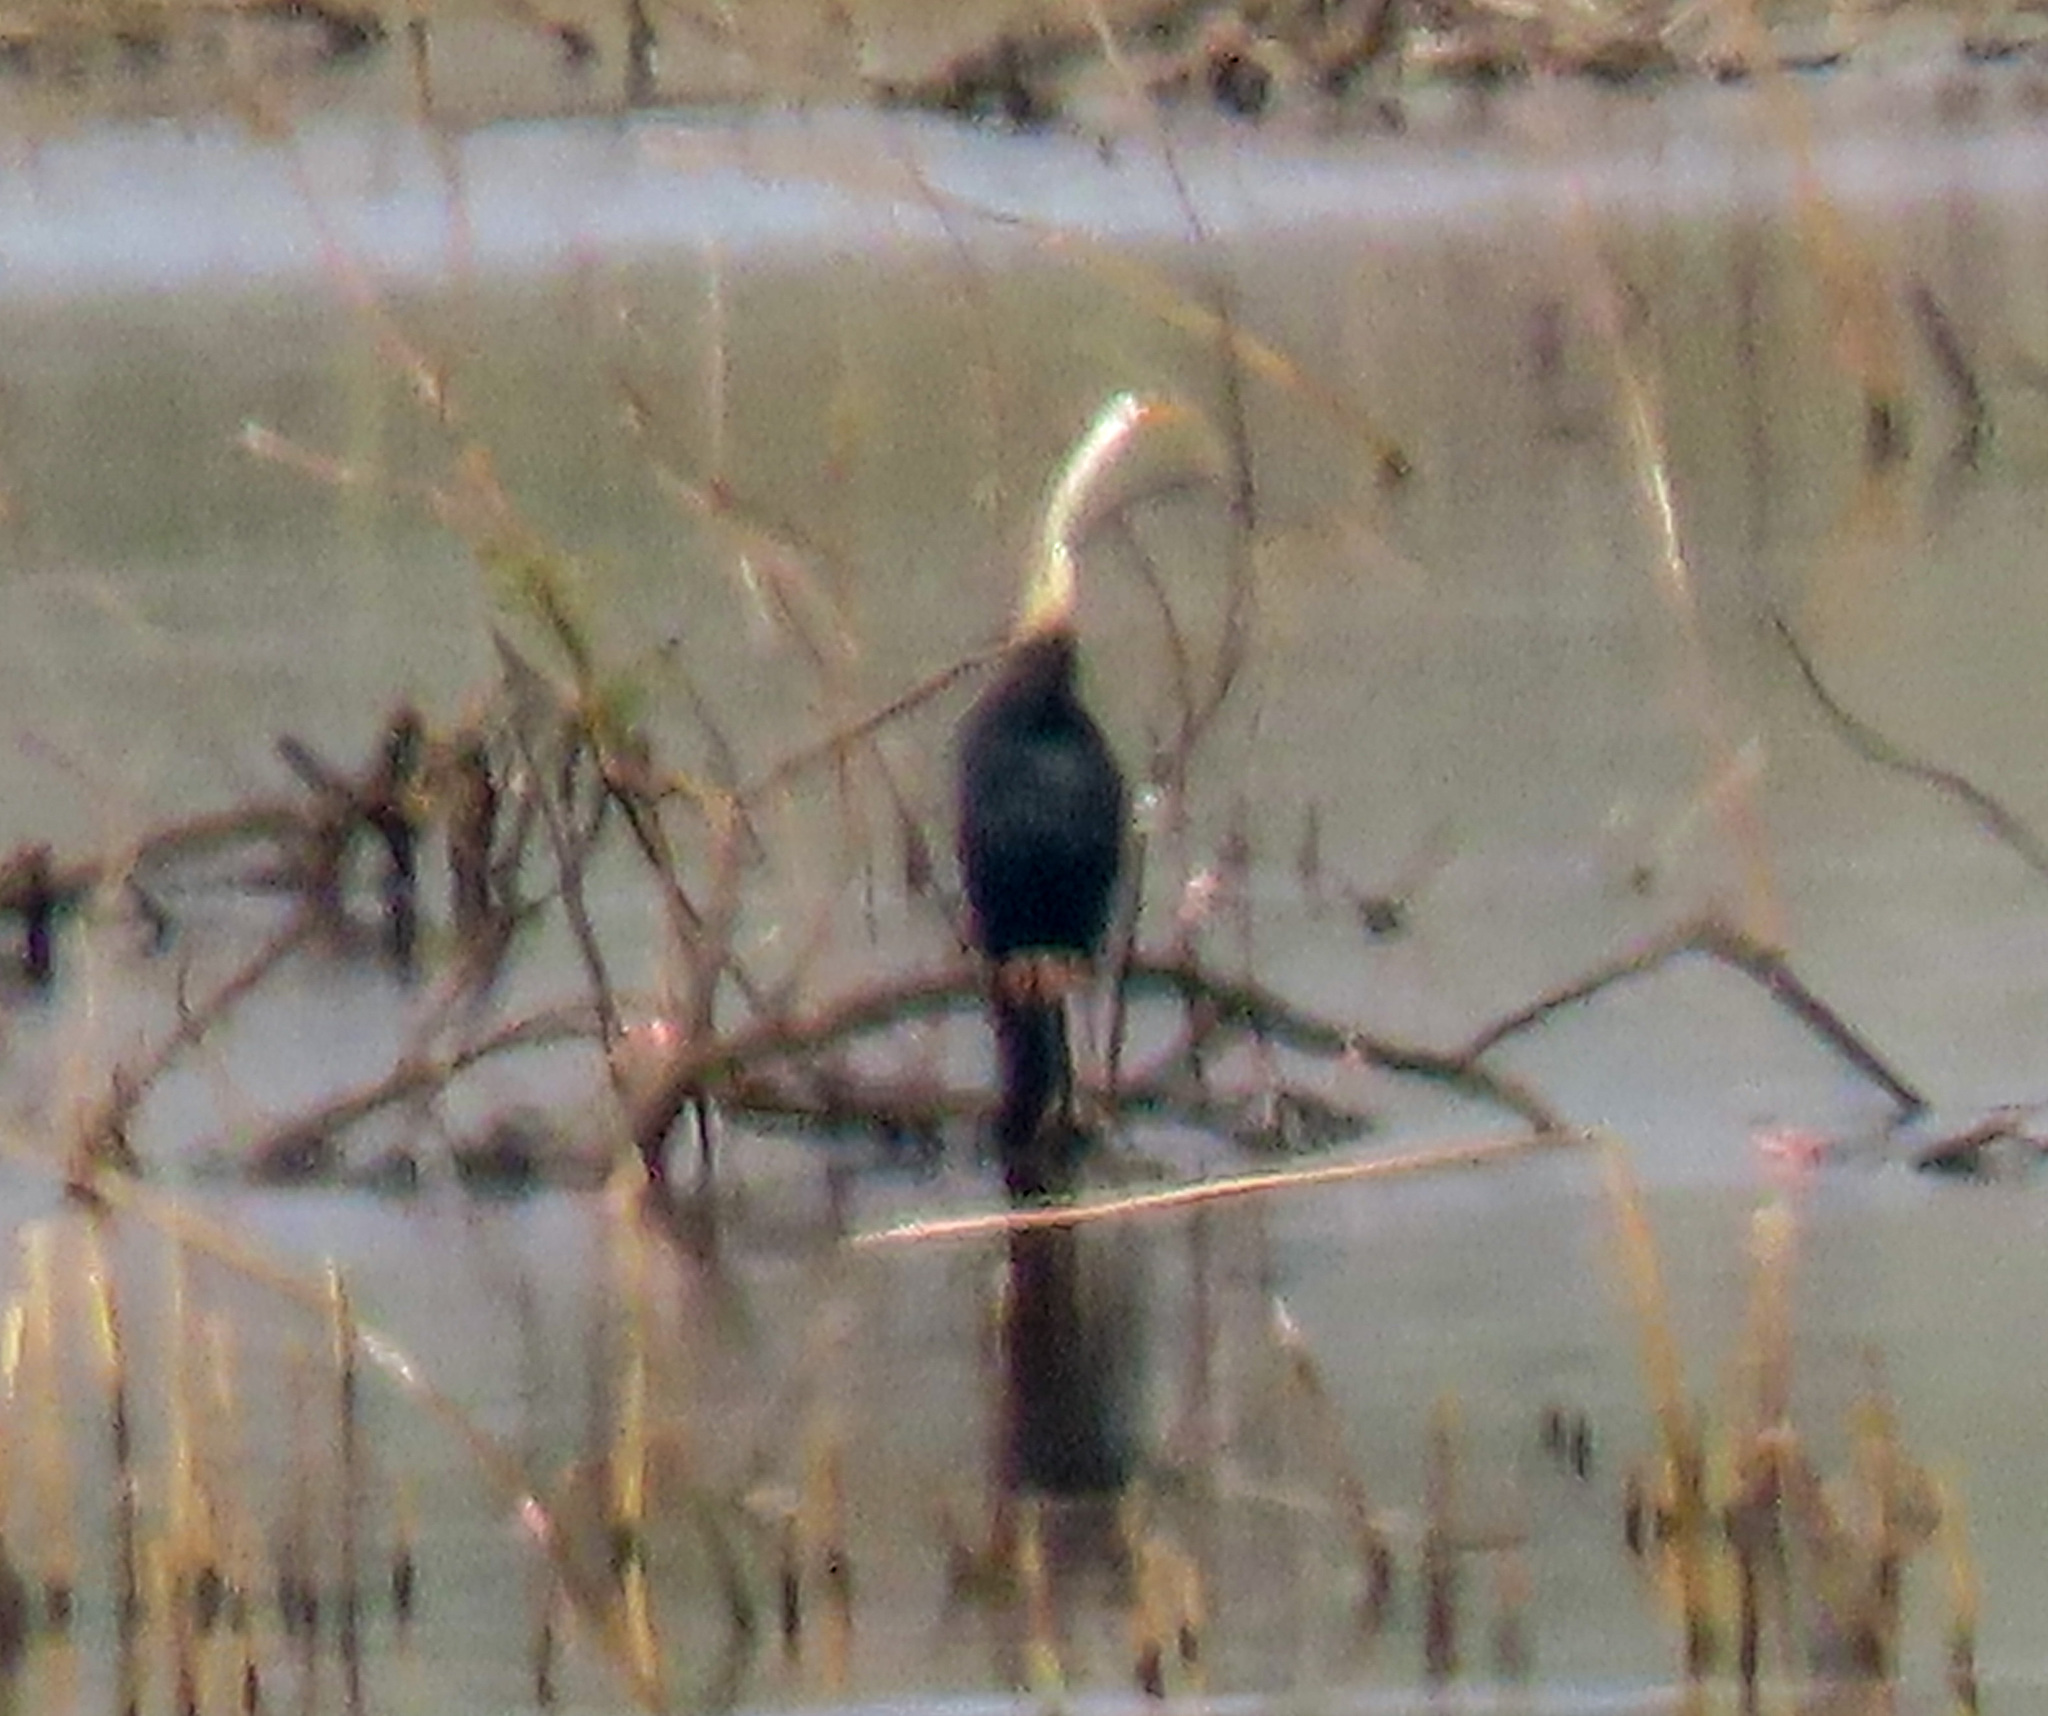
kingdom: Animalia
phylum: Chordata
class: Aves
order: Suliformes
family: Anhingidae
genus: Anhinga
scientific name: Anhinga melanogaster
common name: Oriental darter
